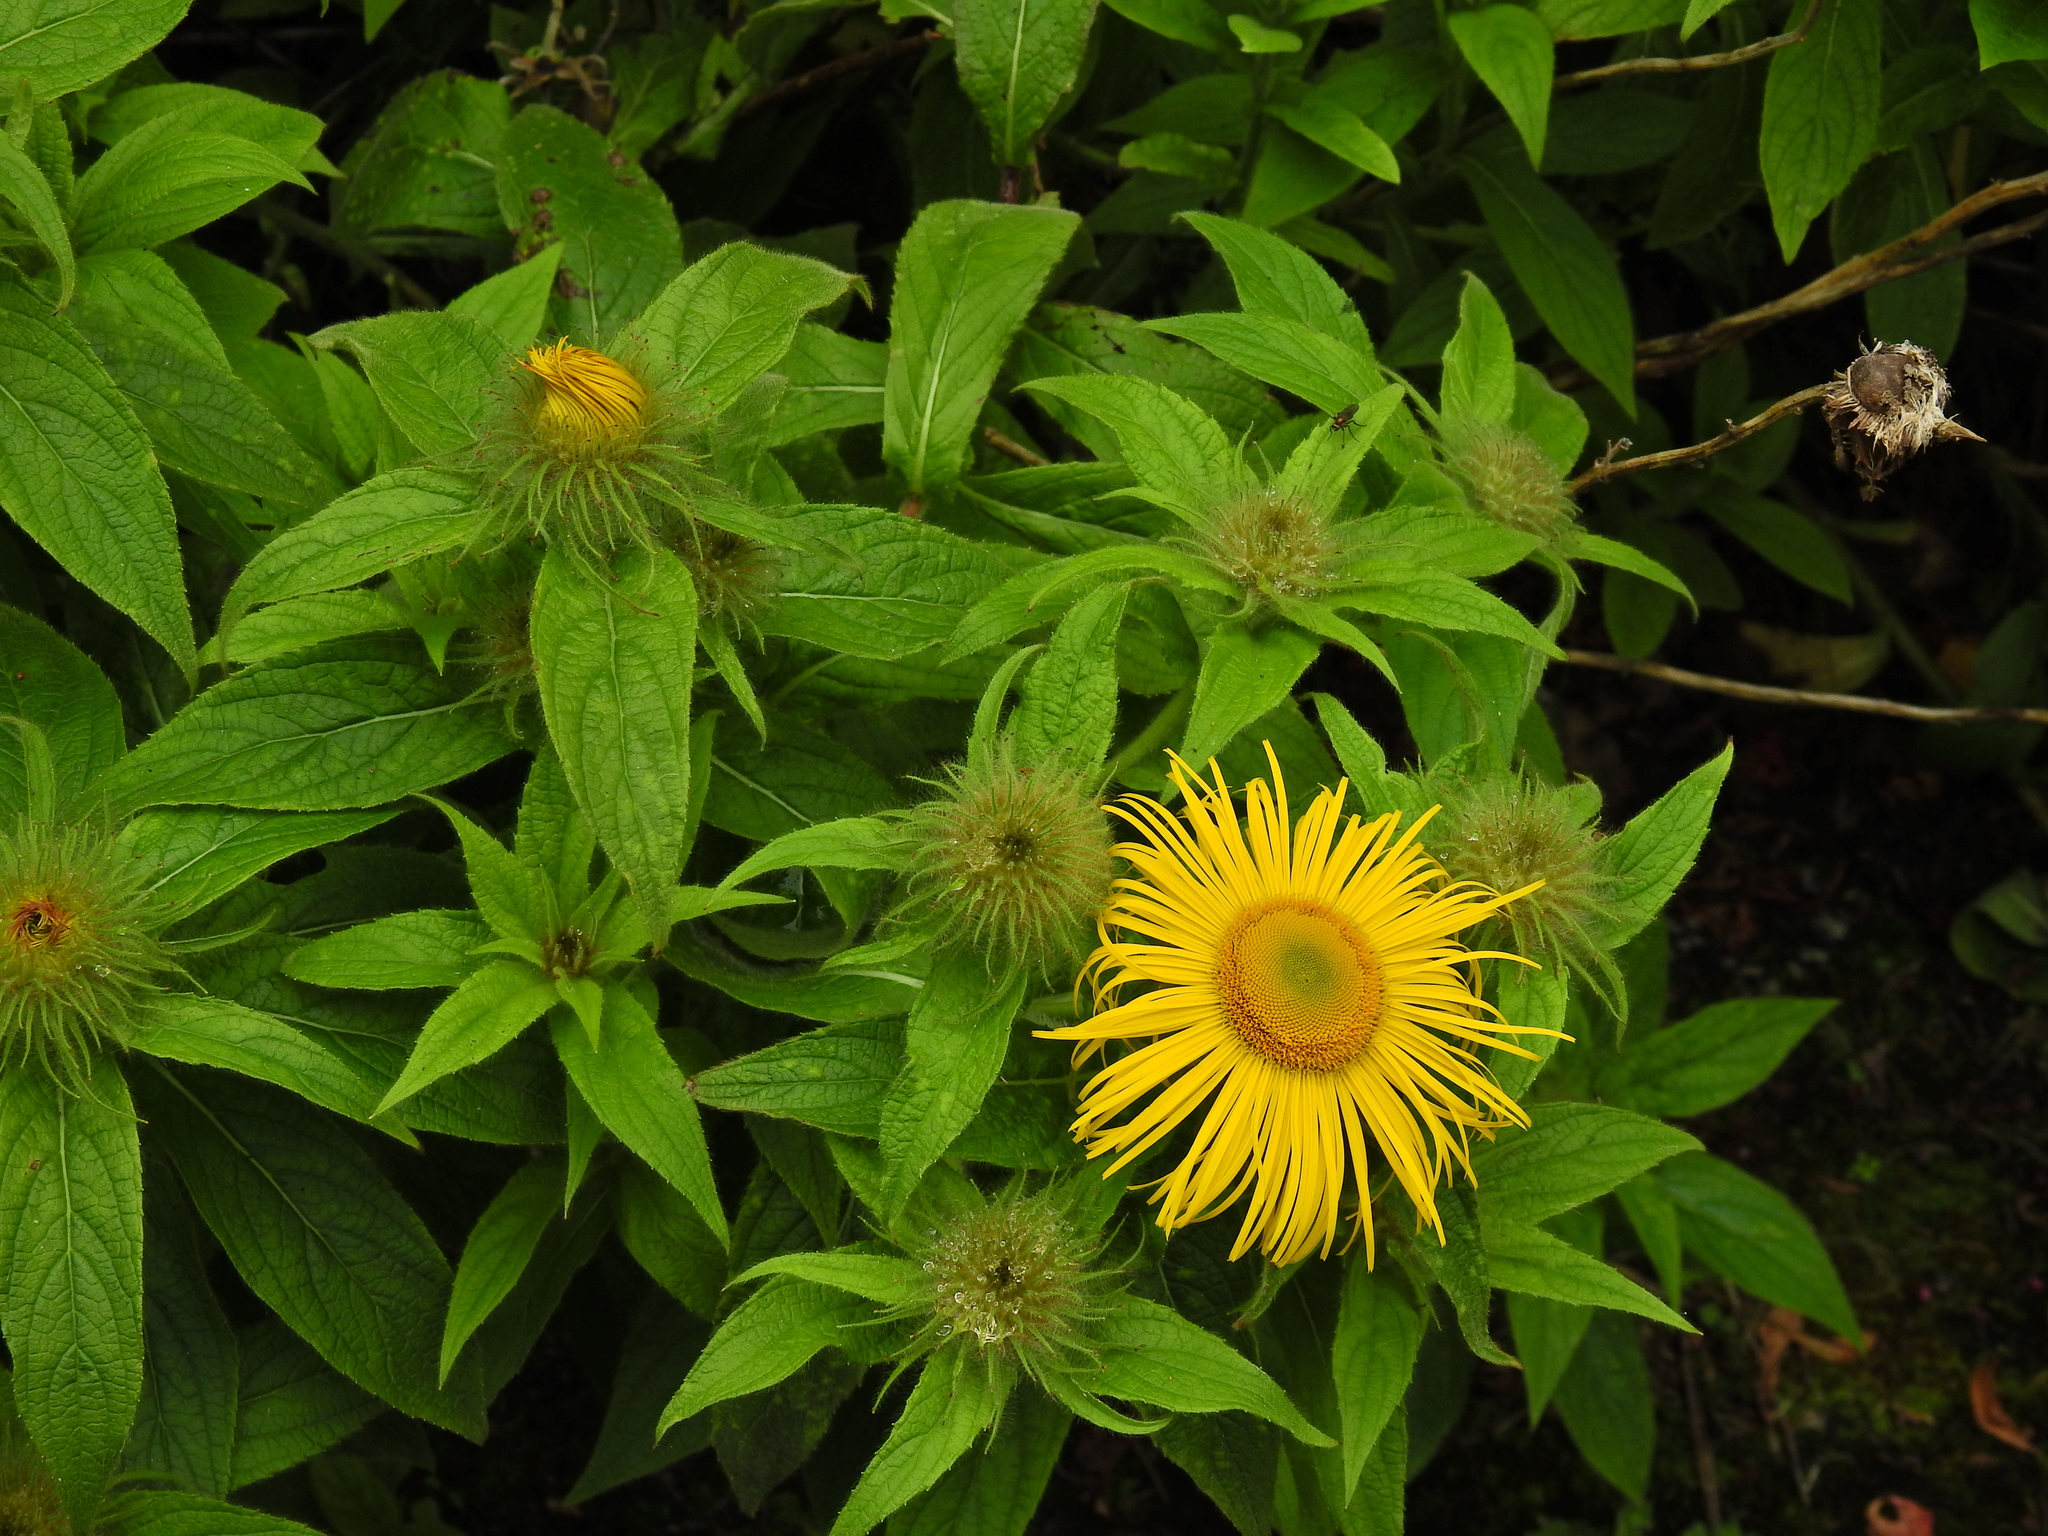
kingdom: Plantae
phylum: Tracheophyta
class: Magnoliopsida
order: Asterales
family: Asteraceae
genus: Inula
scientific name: Inula hookeri
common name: Hooker's-fleabane
